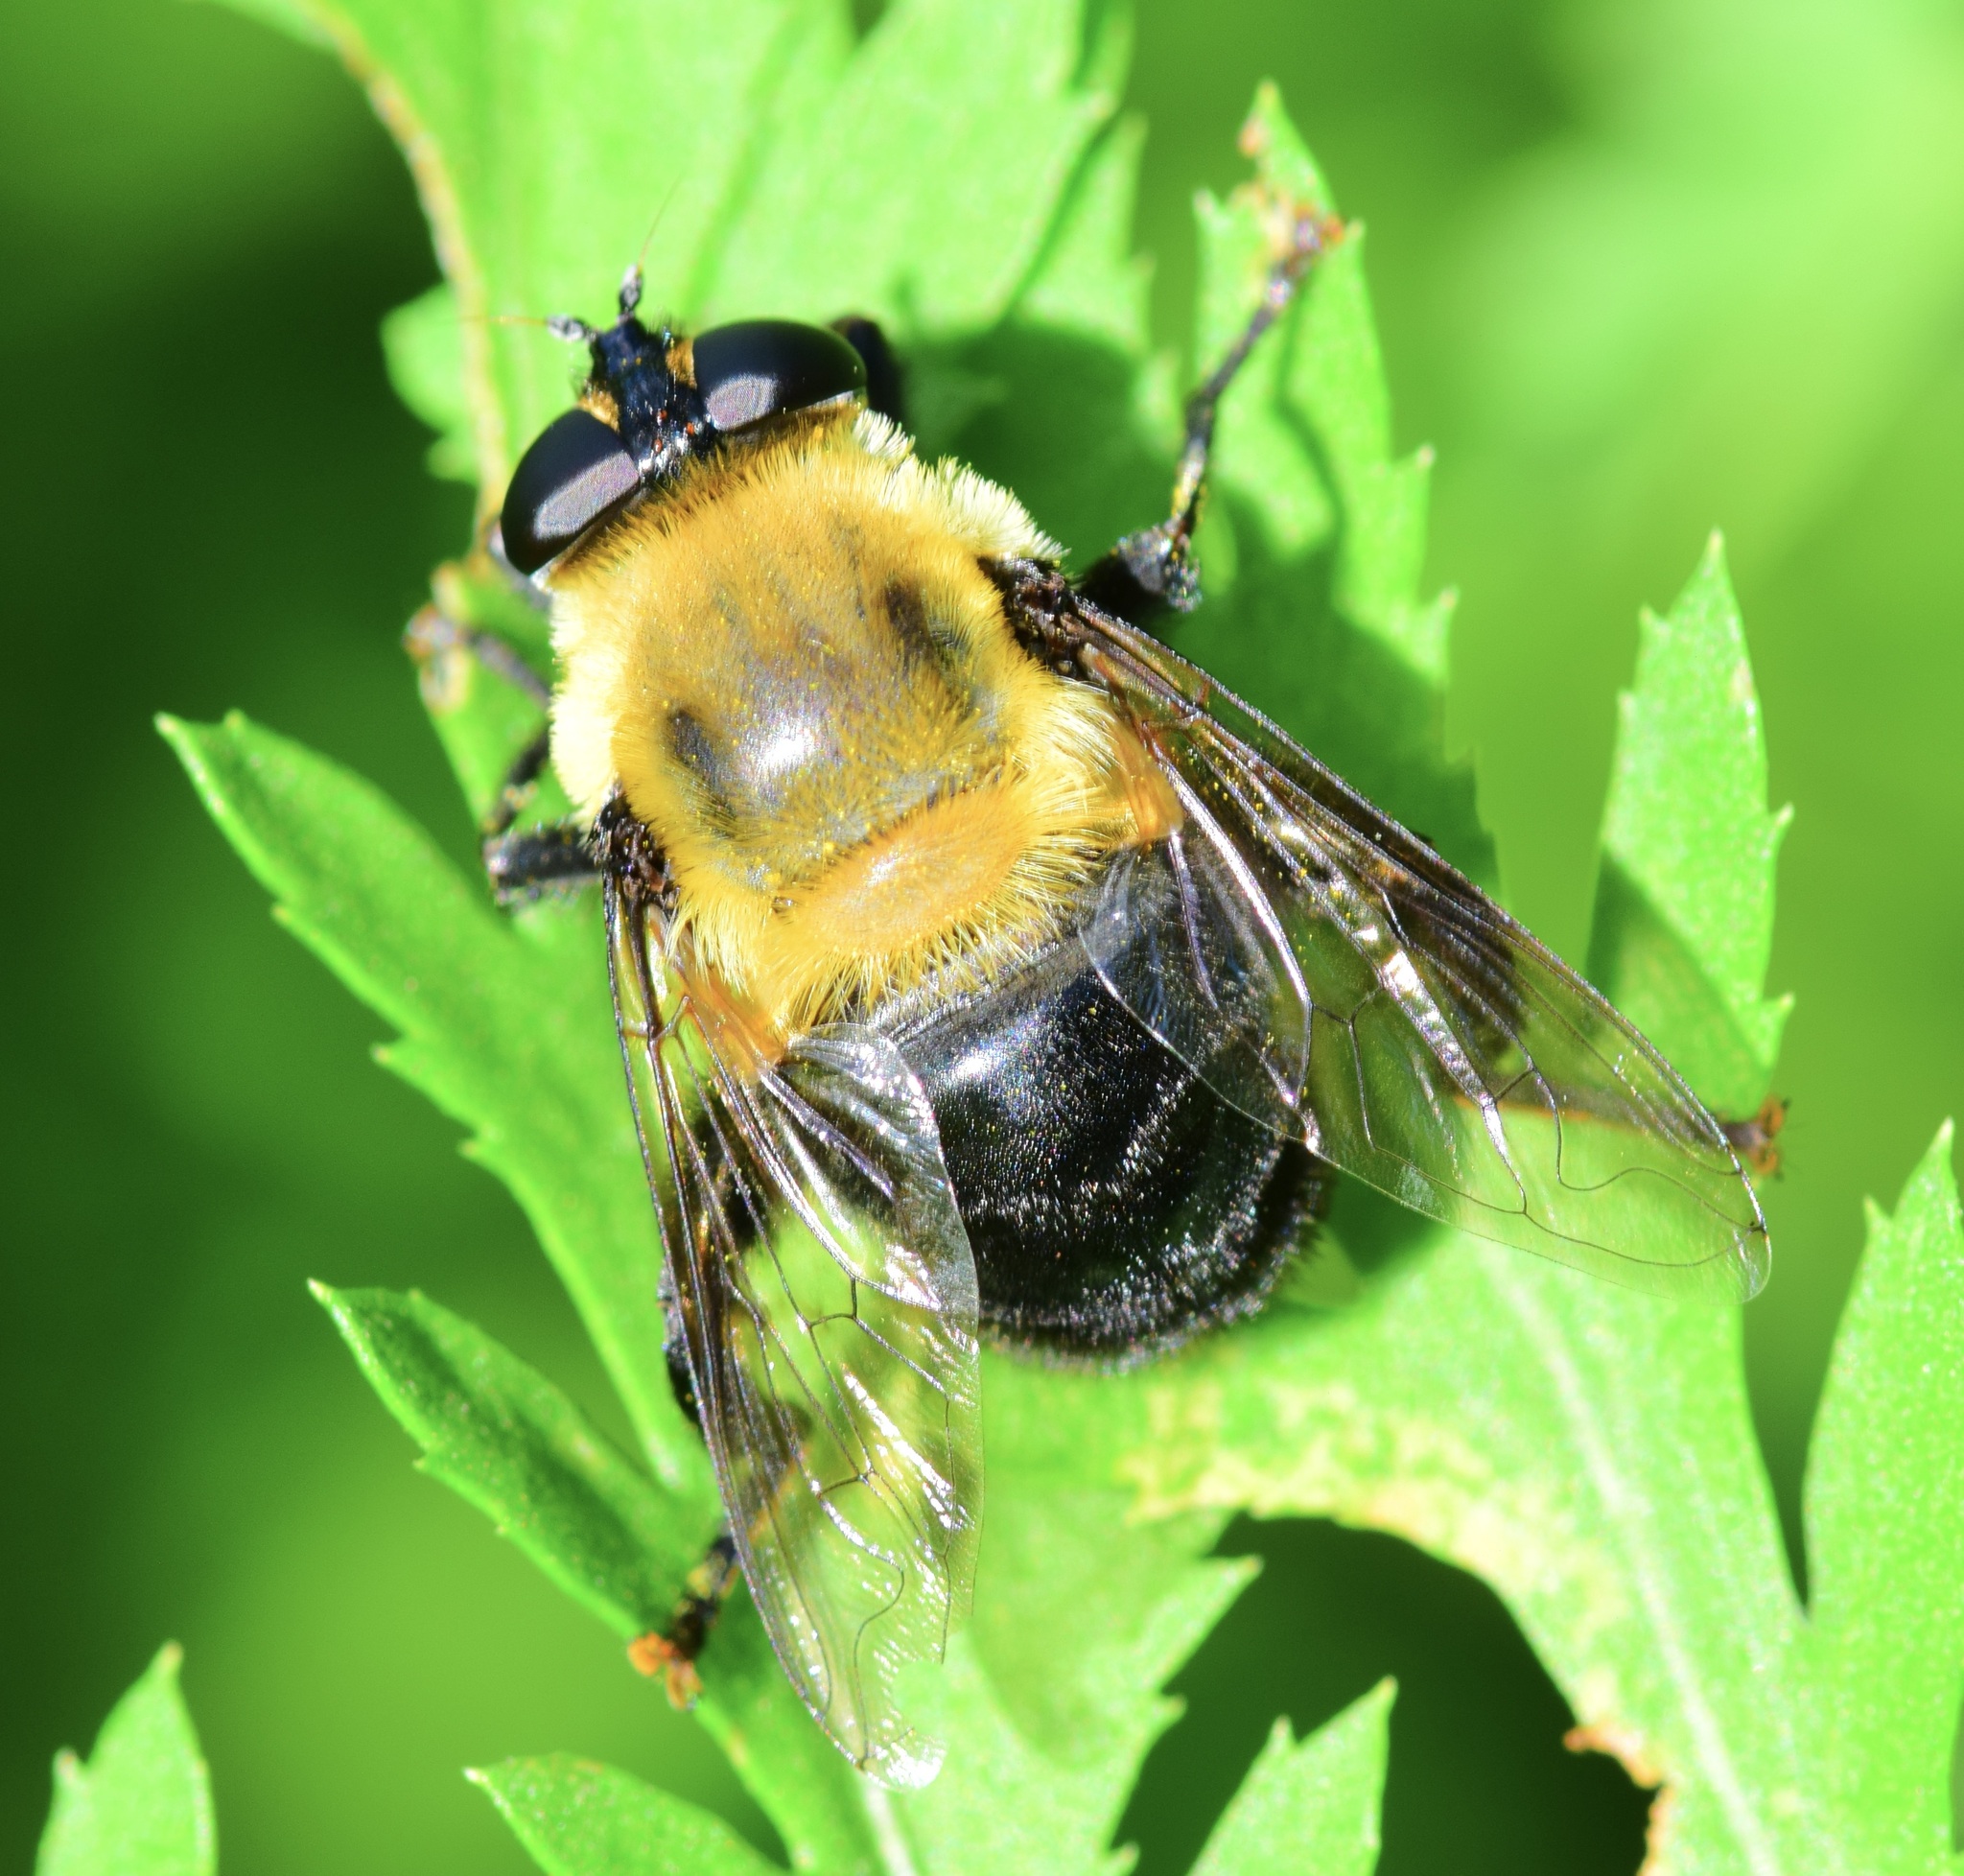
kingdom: Animalia
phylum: Arthropoda
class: Insecta
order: Diptera
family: Syrphidae
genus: Imatisma
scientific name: Imatisma bautias
